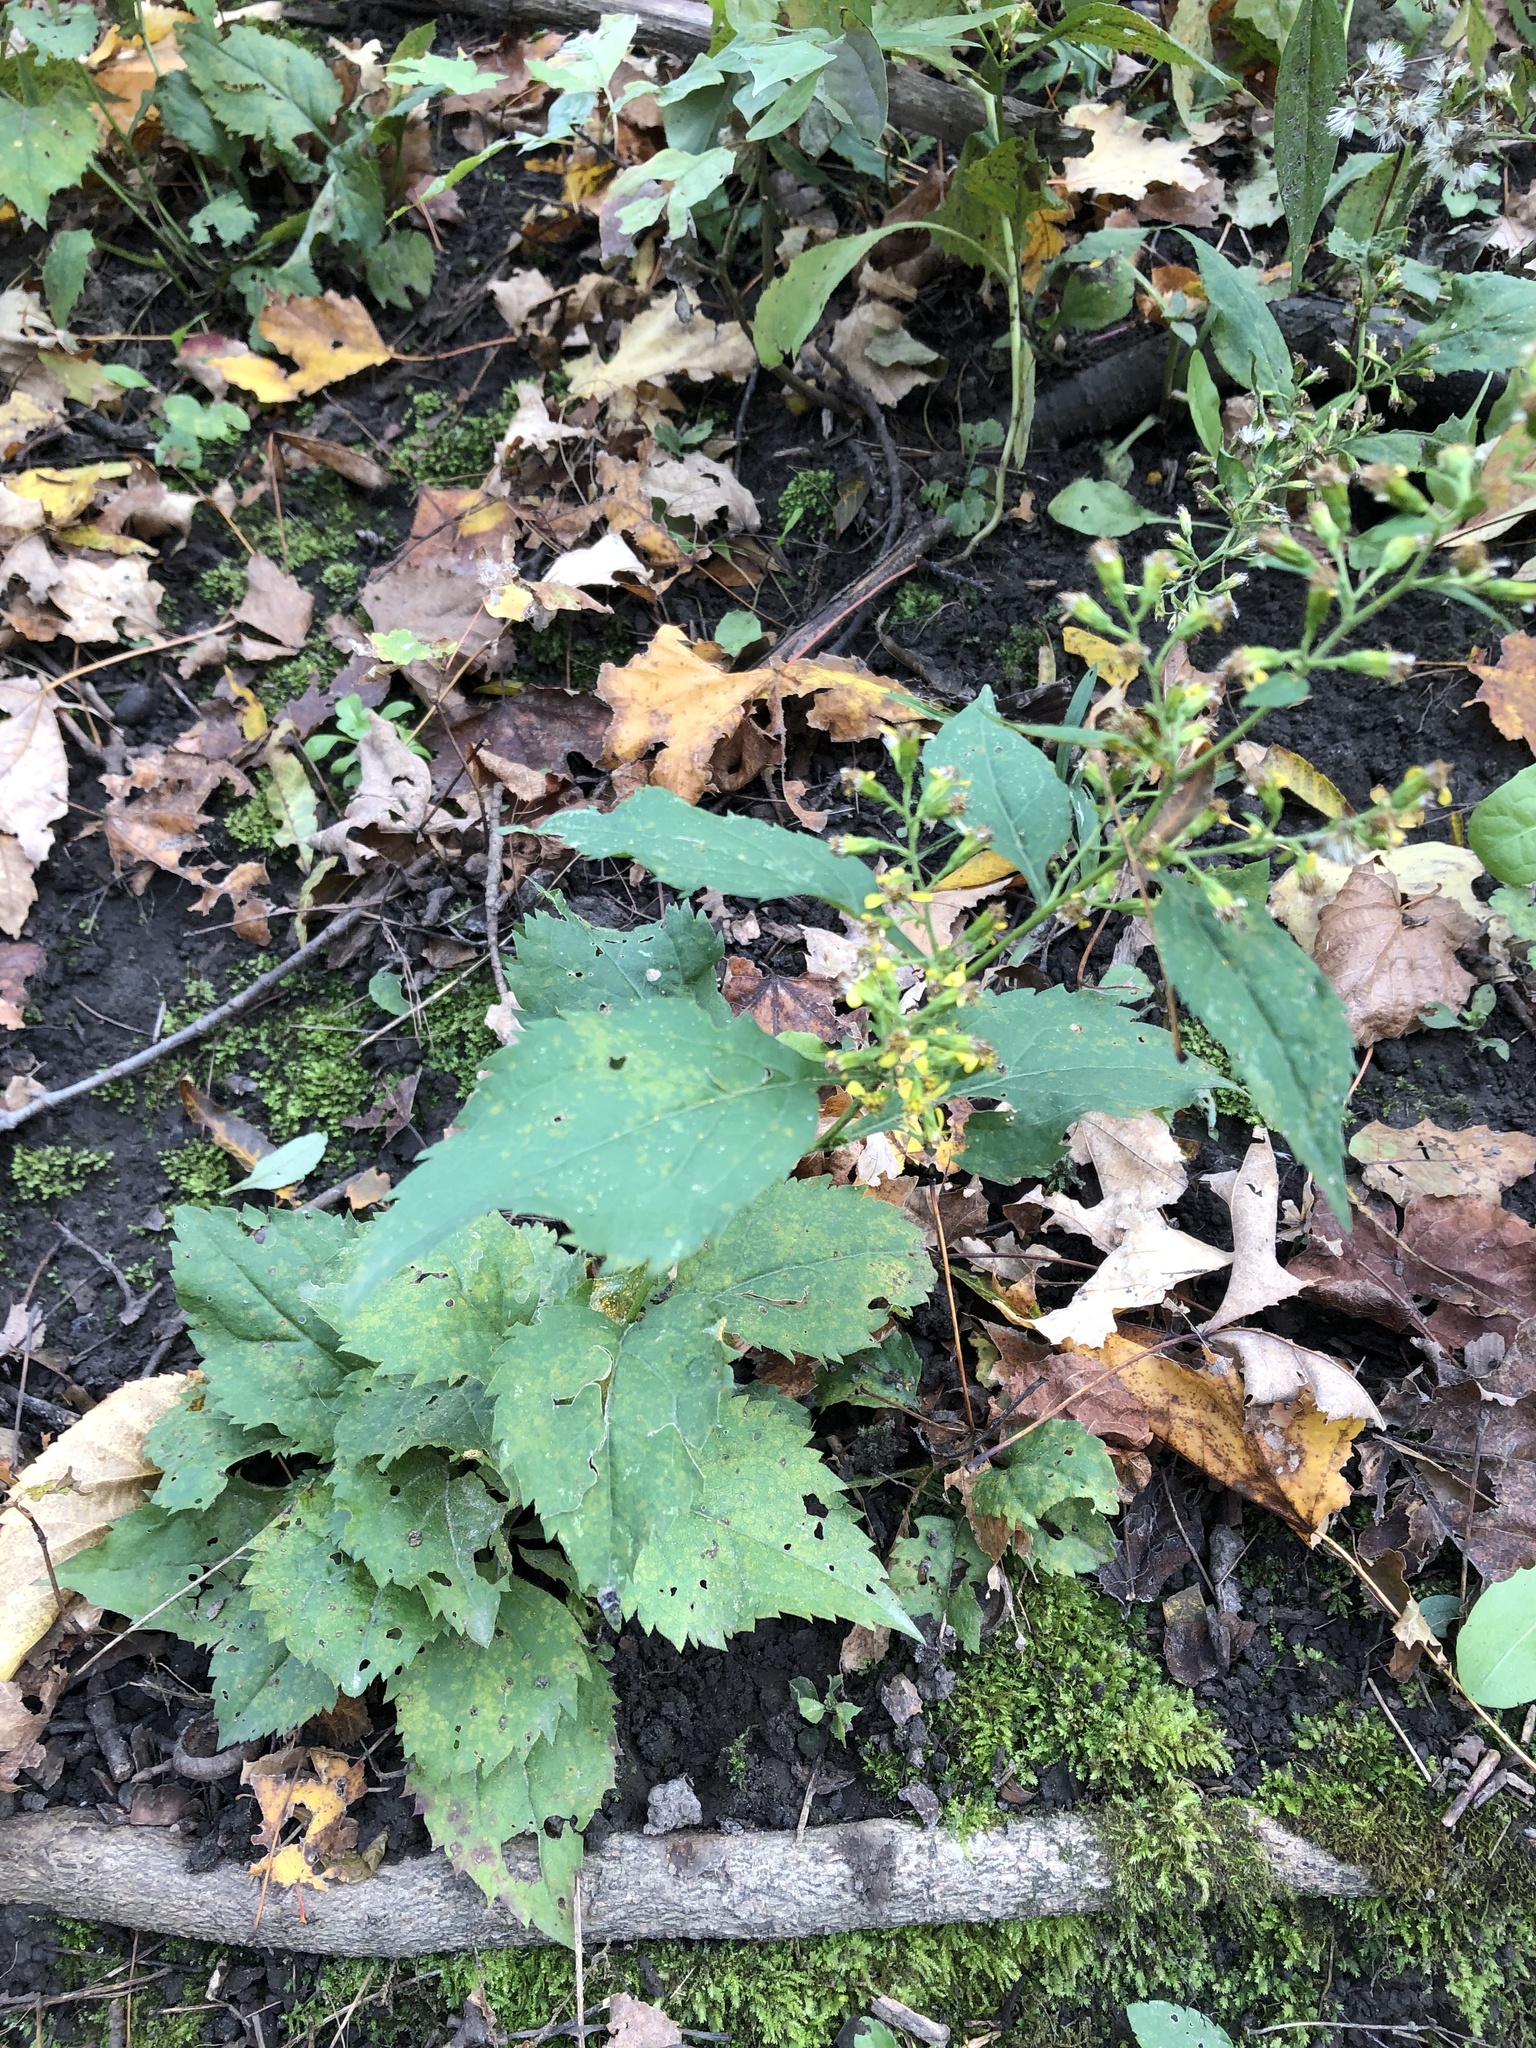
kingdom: Plantae
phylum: Tracheophyta
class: Magnoliopsida
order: Asterales
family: Asteraceae
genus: Solidago
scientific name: Solidago flexicaulis
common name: Zig-zag goldenrod
